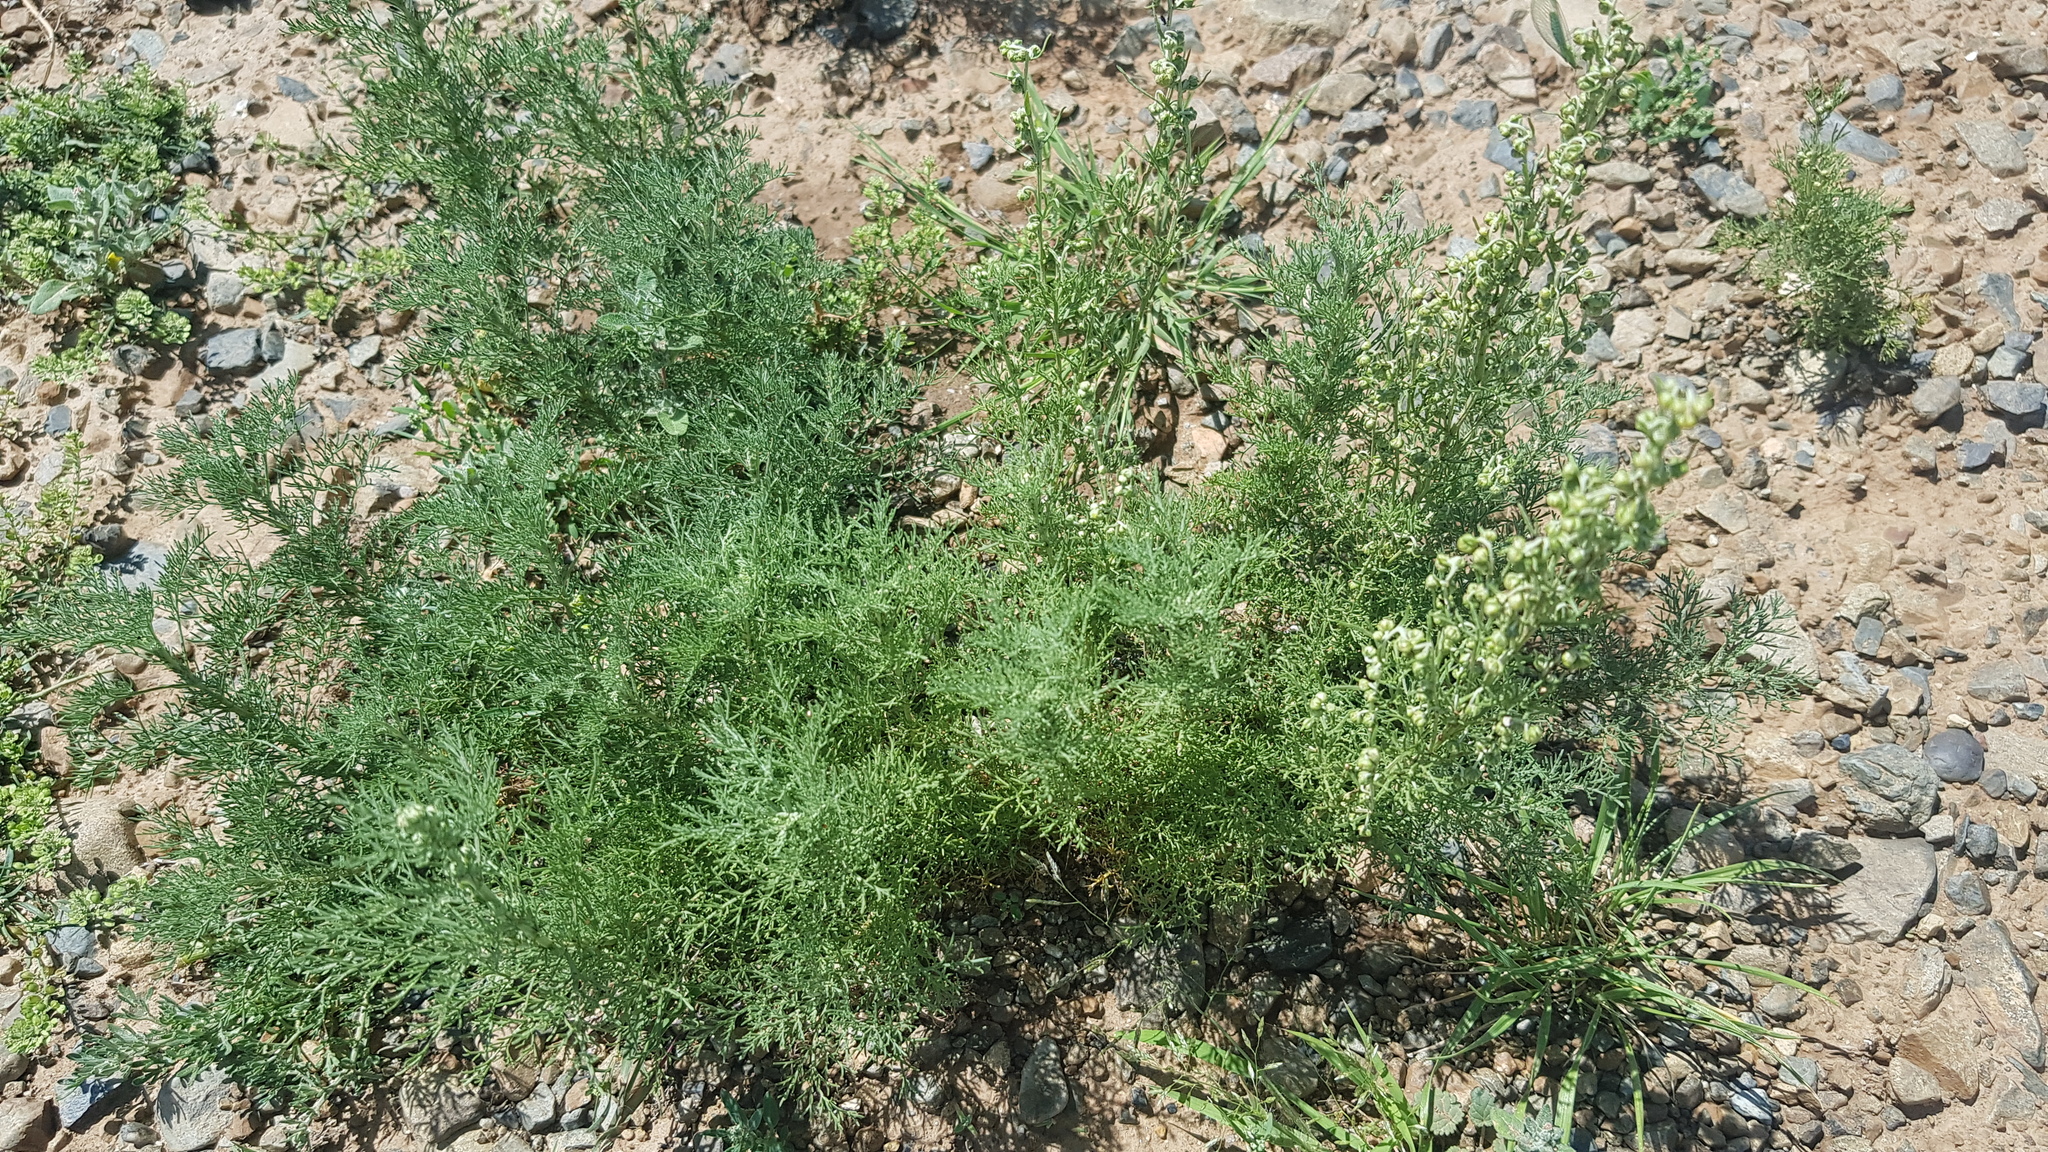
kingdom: Plantae
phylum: Tracheophyta
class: Magnoliopsida
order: Asterales
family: Asteraceae
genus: Artemisia
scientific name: Artemisia adamsii
